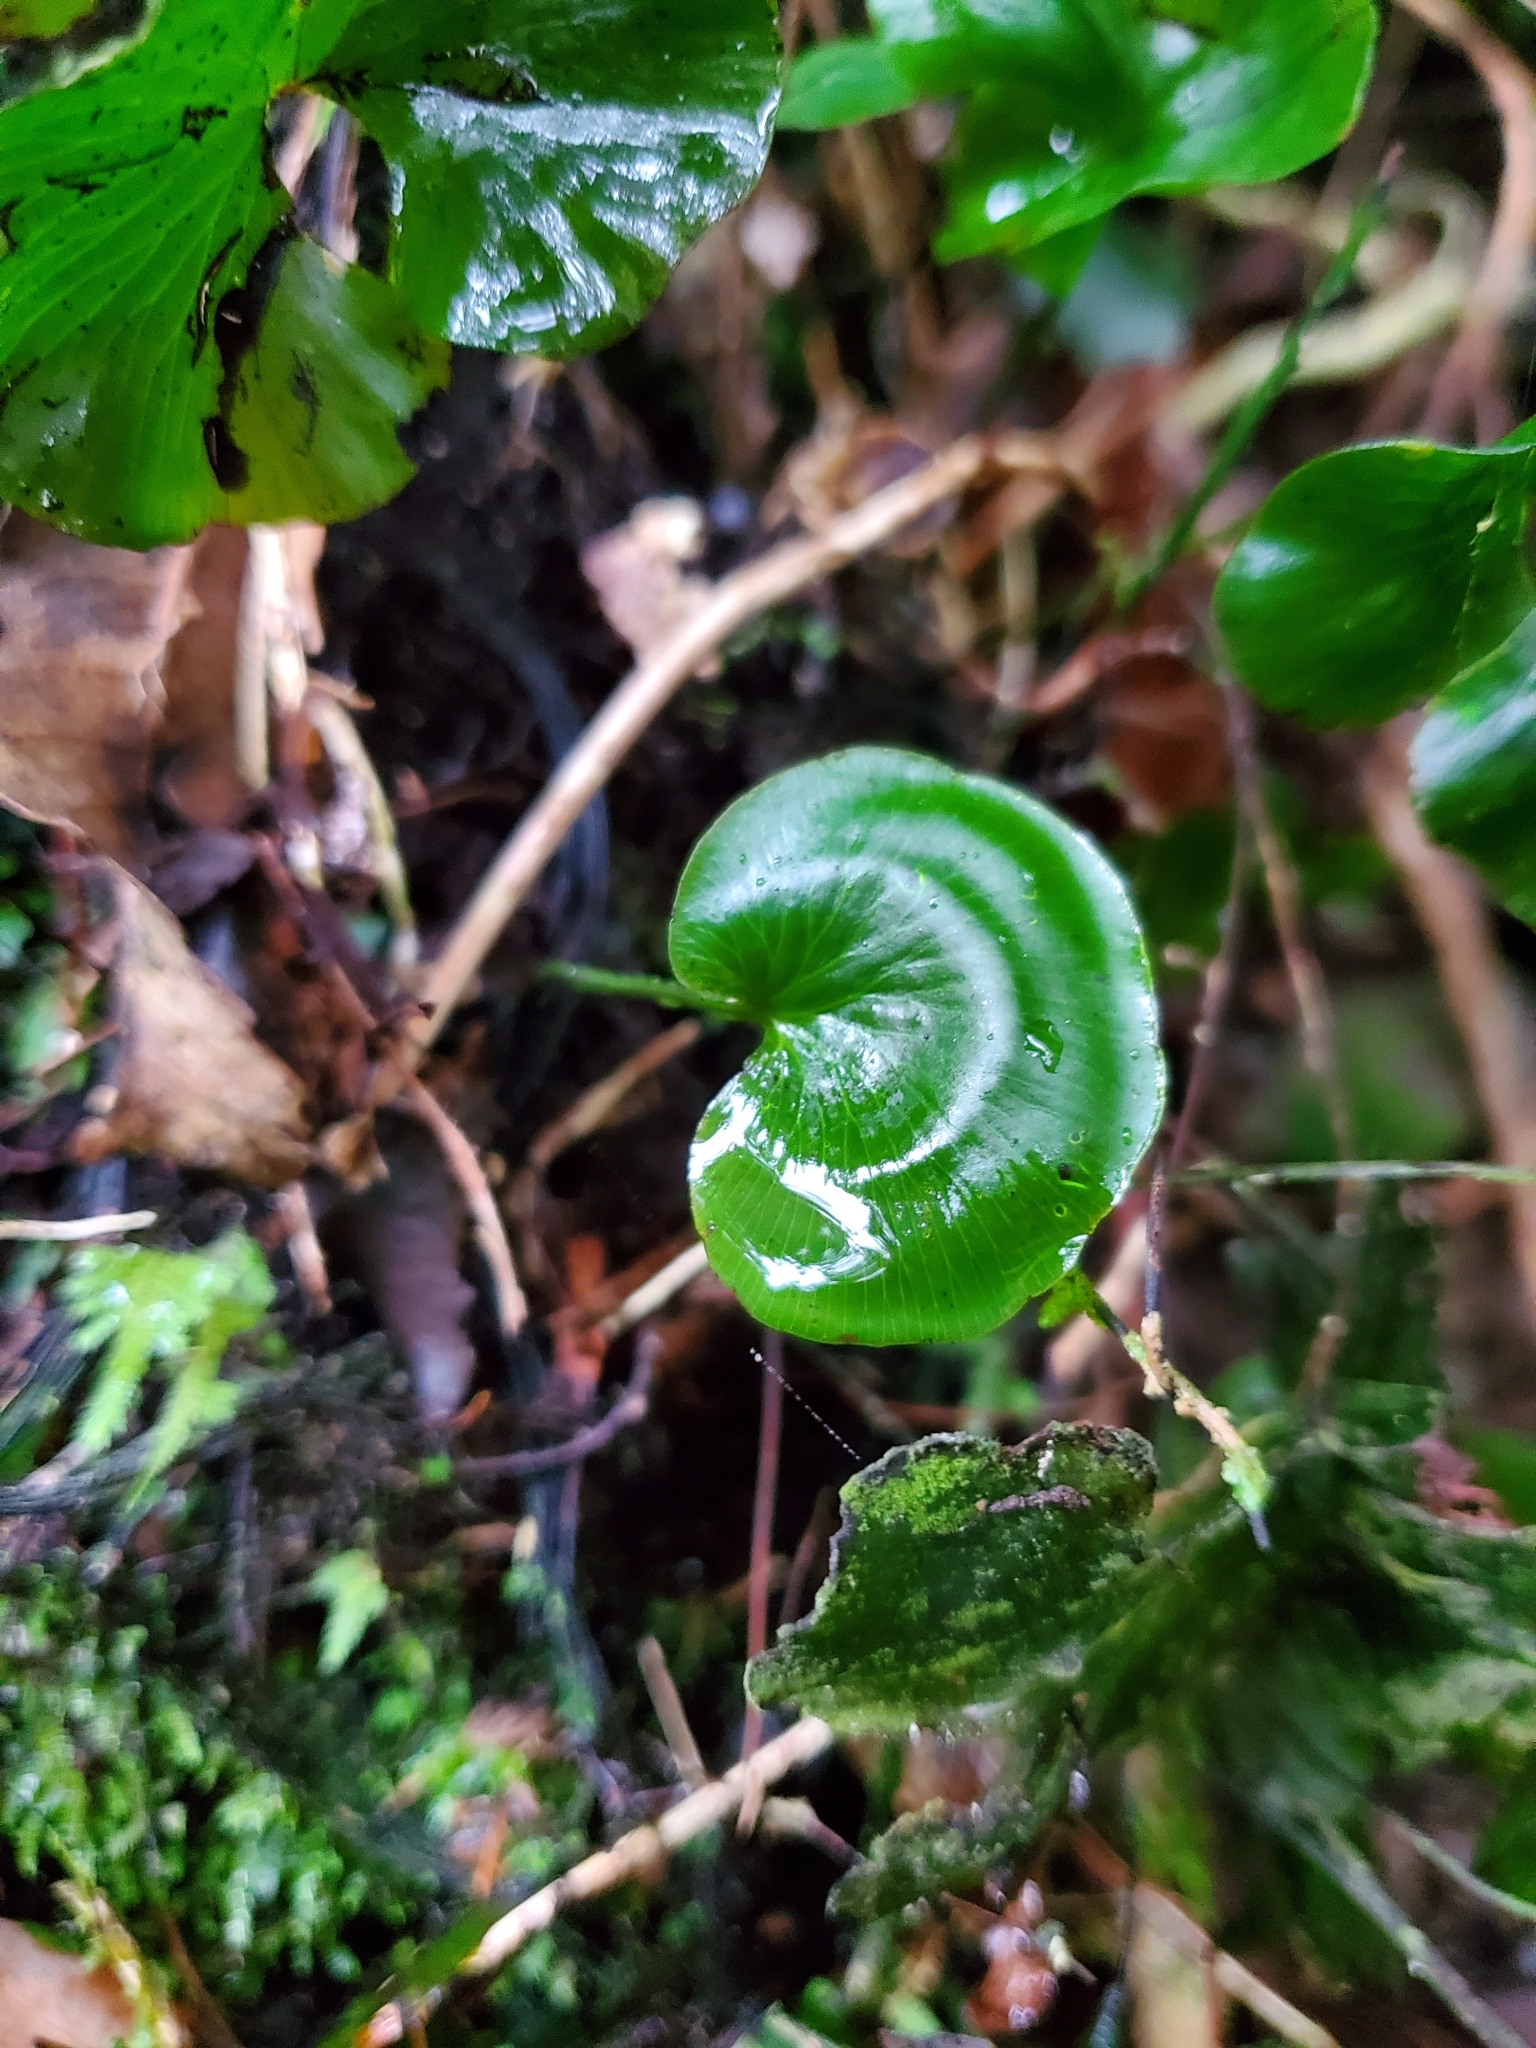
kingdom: Plantae
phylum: Tracheophyta
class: Polypodiopsida
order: Hymenophyllales
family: Hymenophyllaceae
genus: Hymenophyllum
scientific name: Hymenophyllum nephrophyllum
